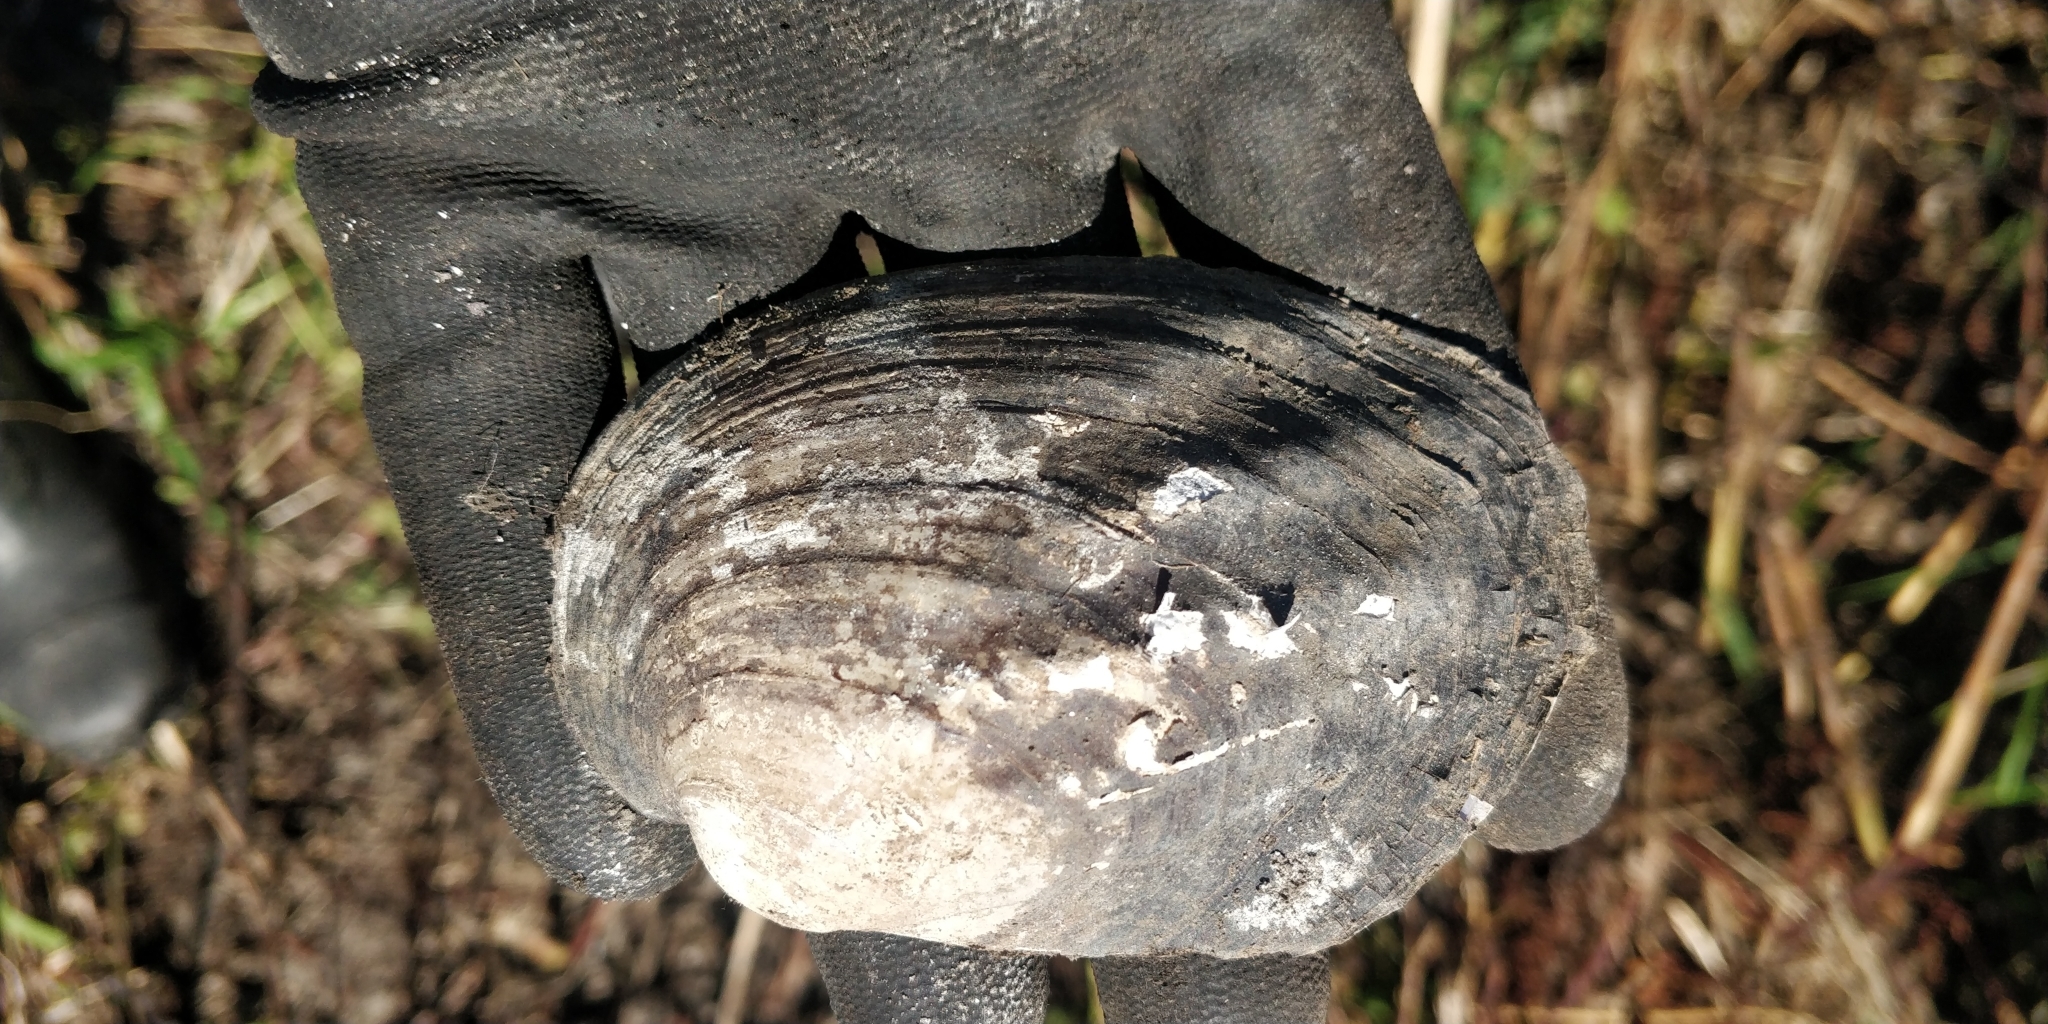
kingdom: Animalia
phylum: Mollusca
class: Bivalvia
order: Unionida
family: Unionidae
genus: Amblema
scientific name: Amblema plicata
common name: Threeridge
